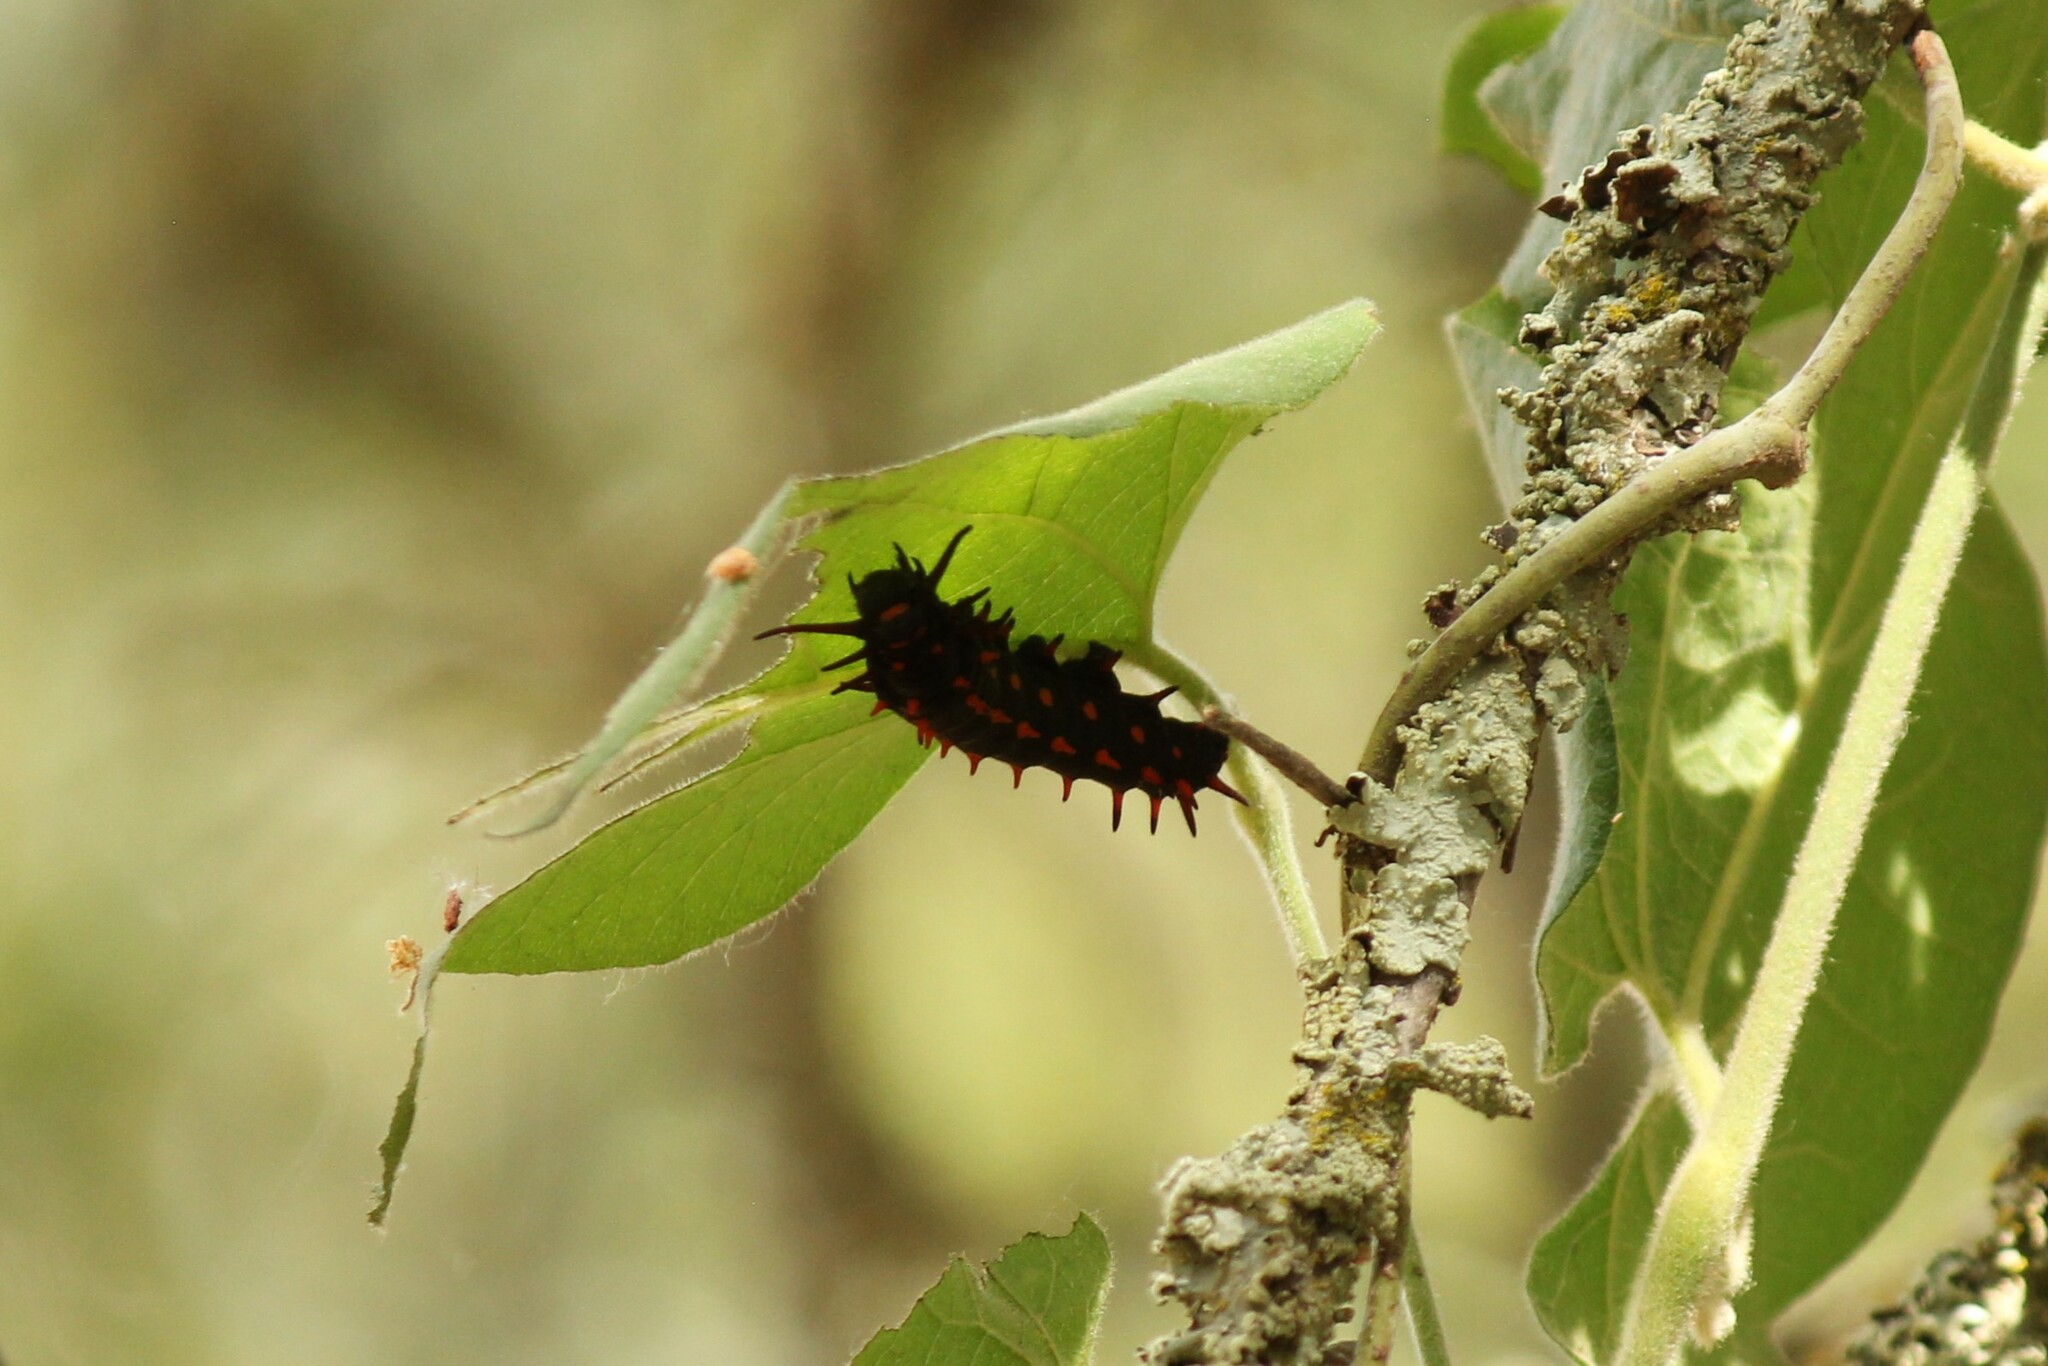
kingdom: Animalia
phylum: Arthropoda
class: Insecta
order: Lepidoptera
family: Papilionidae
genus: Battus
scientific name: Battus philenor
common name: Pipevine swallowtail
